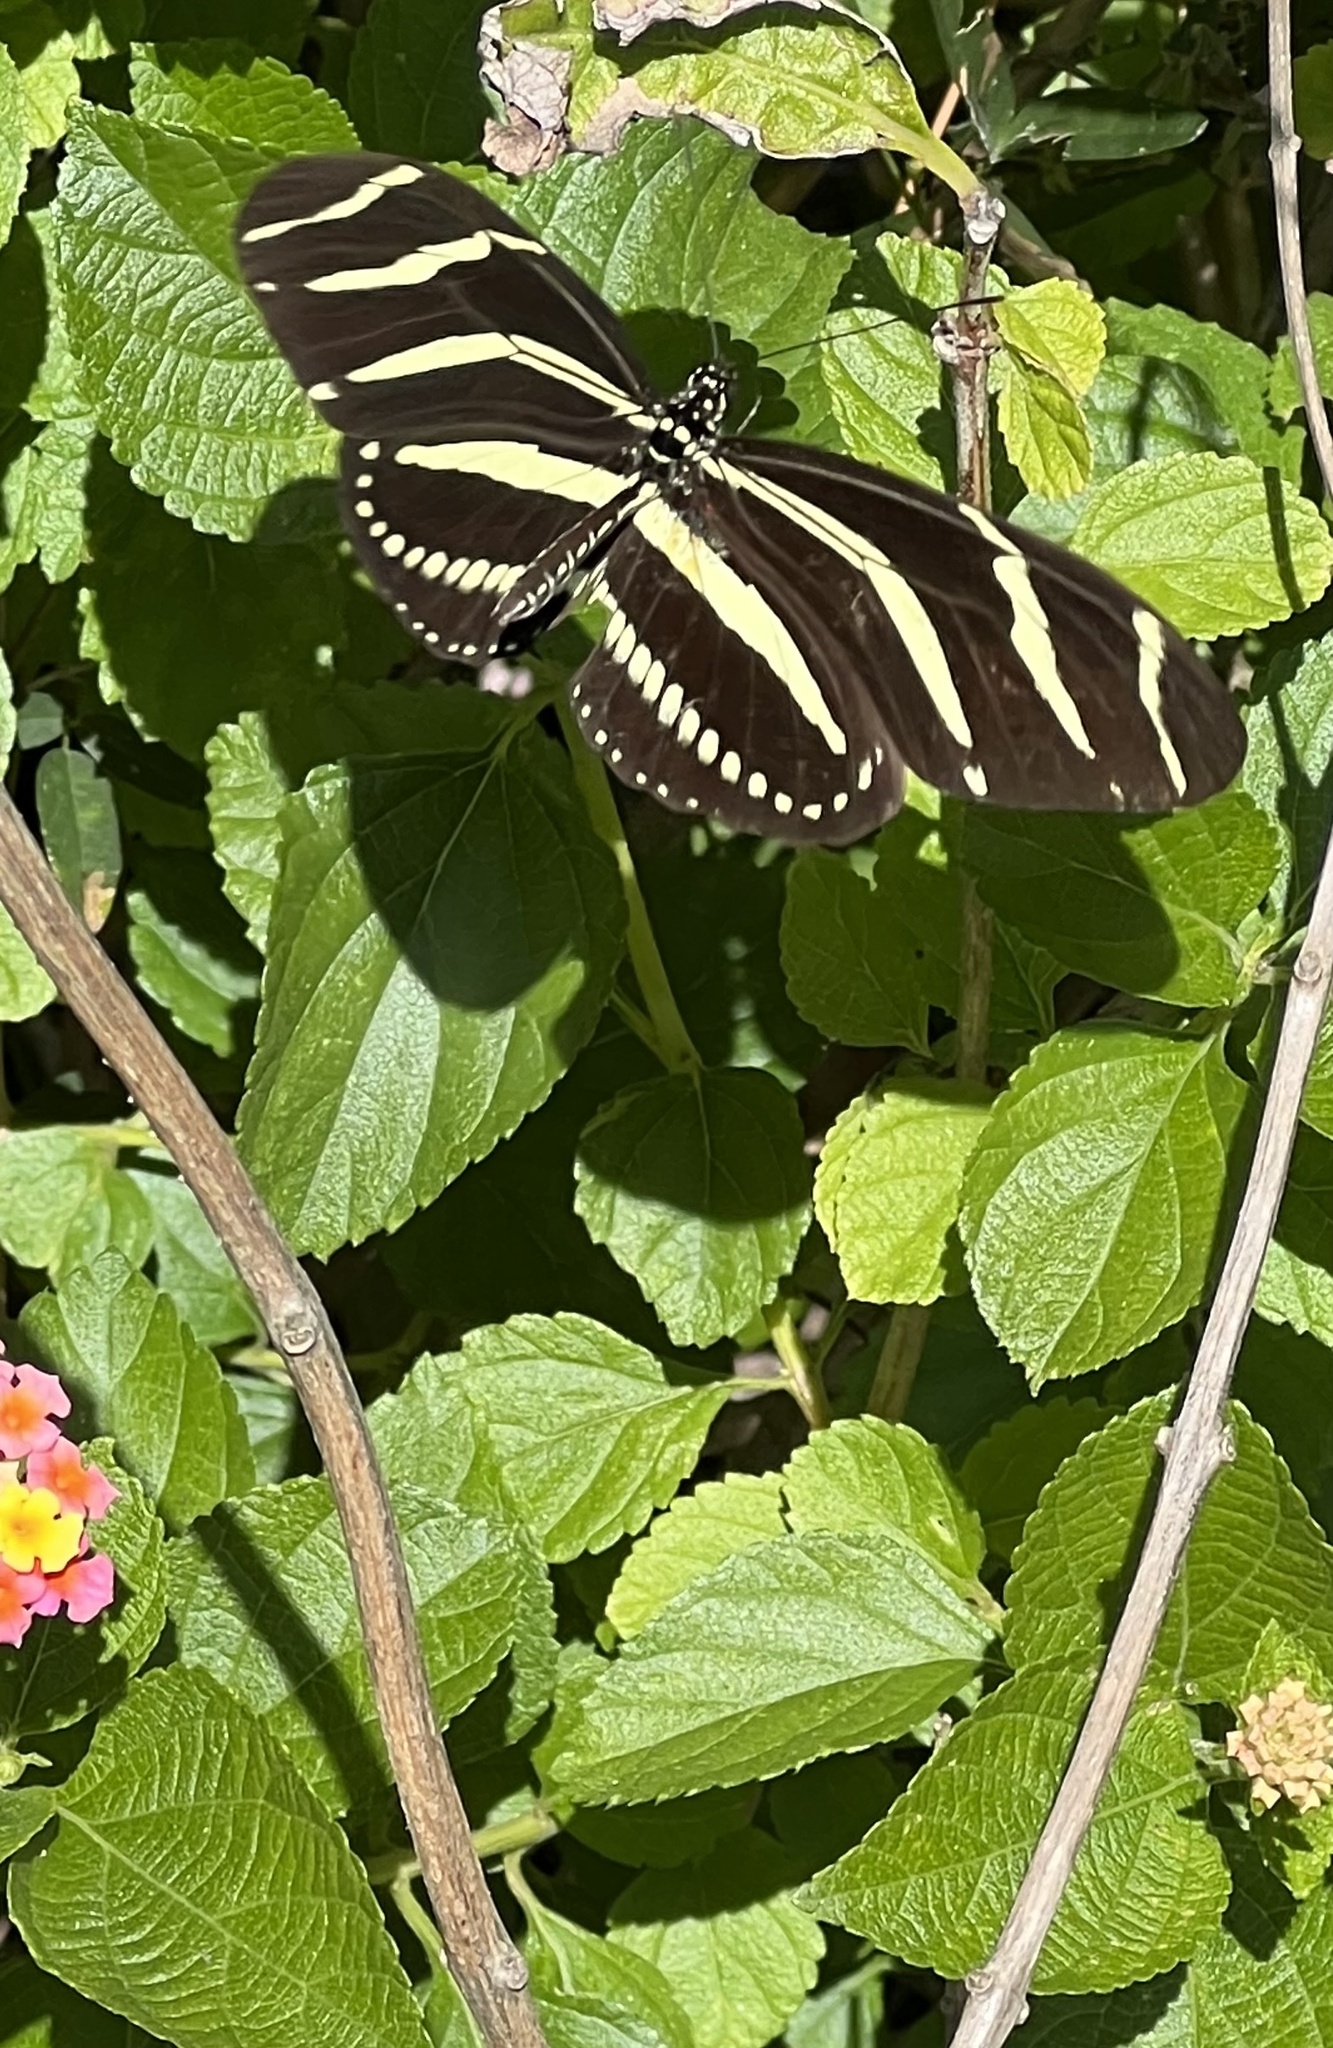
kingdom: Animalia
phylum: Arthropoda
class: Insecta
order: Lepidoptera
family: Nymphalidae
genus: Heliconius
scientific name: Heliconius charithonia
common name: Zebra long wing
